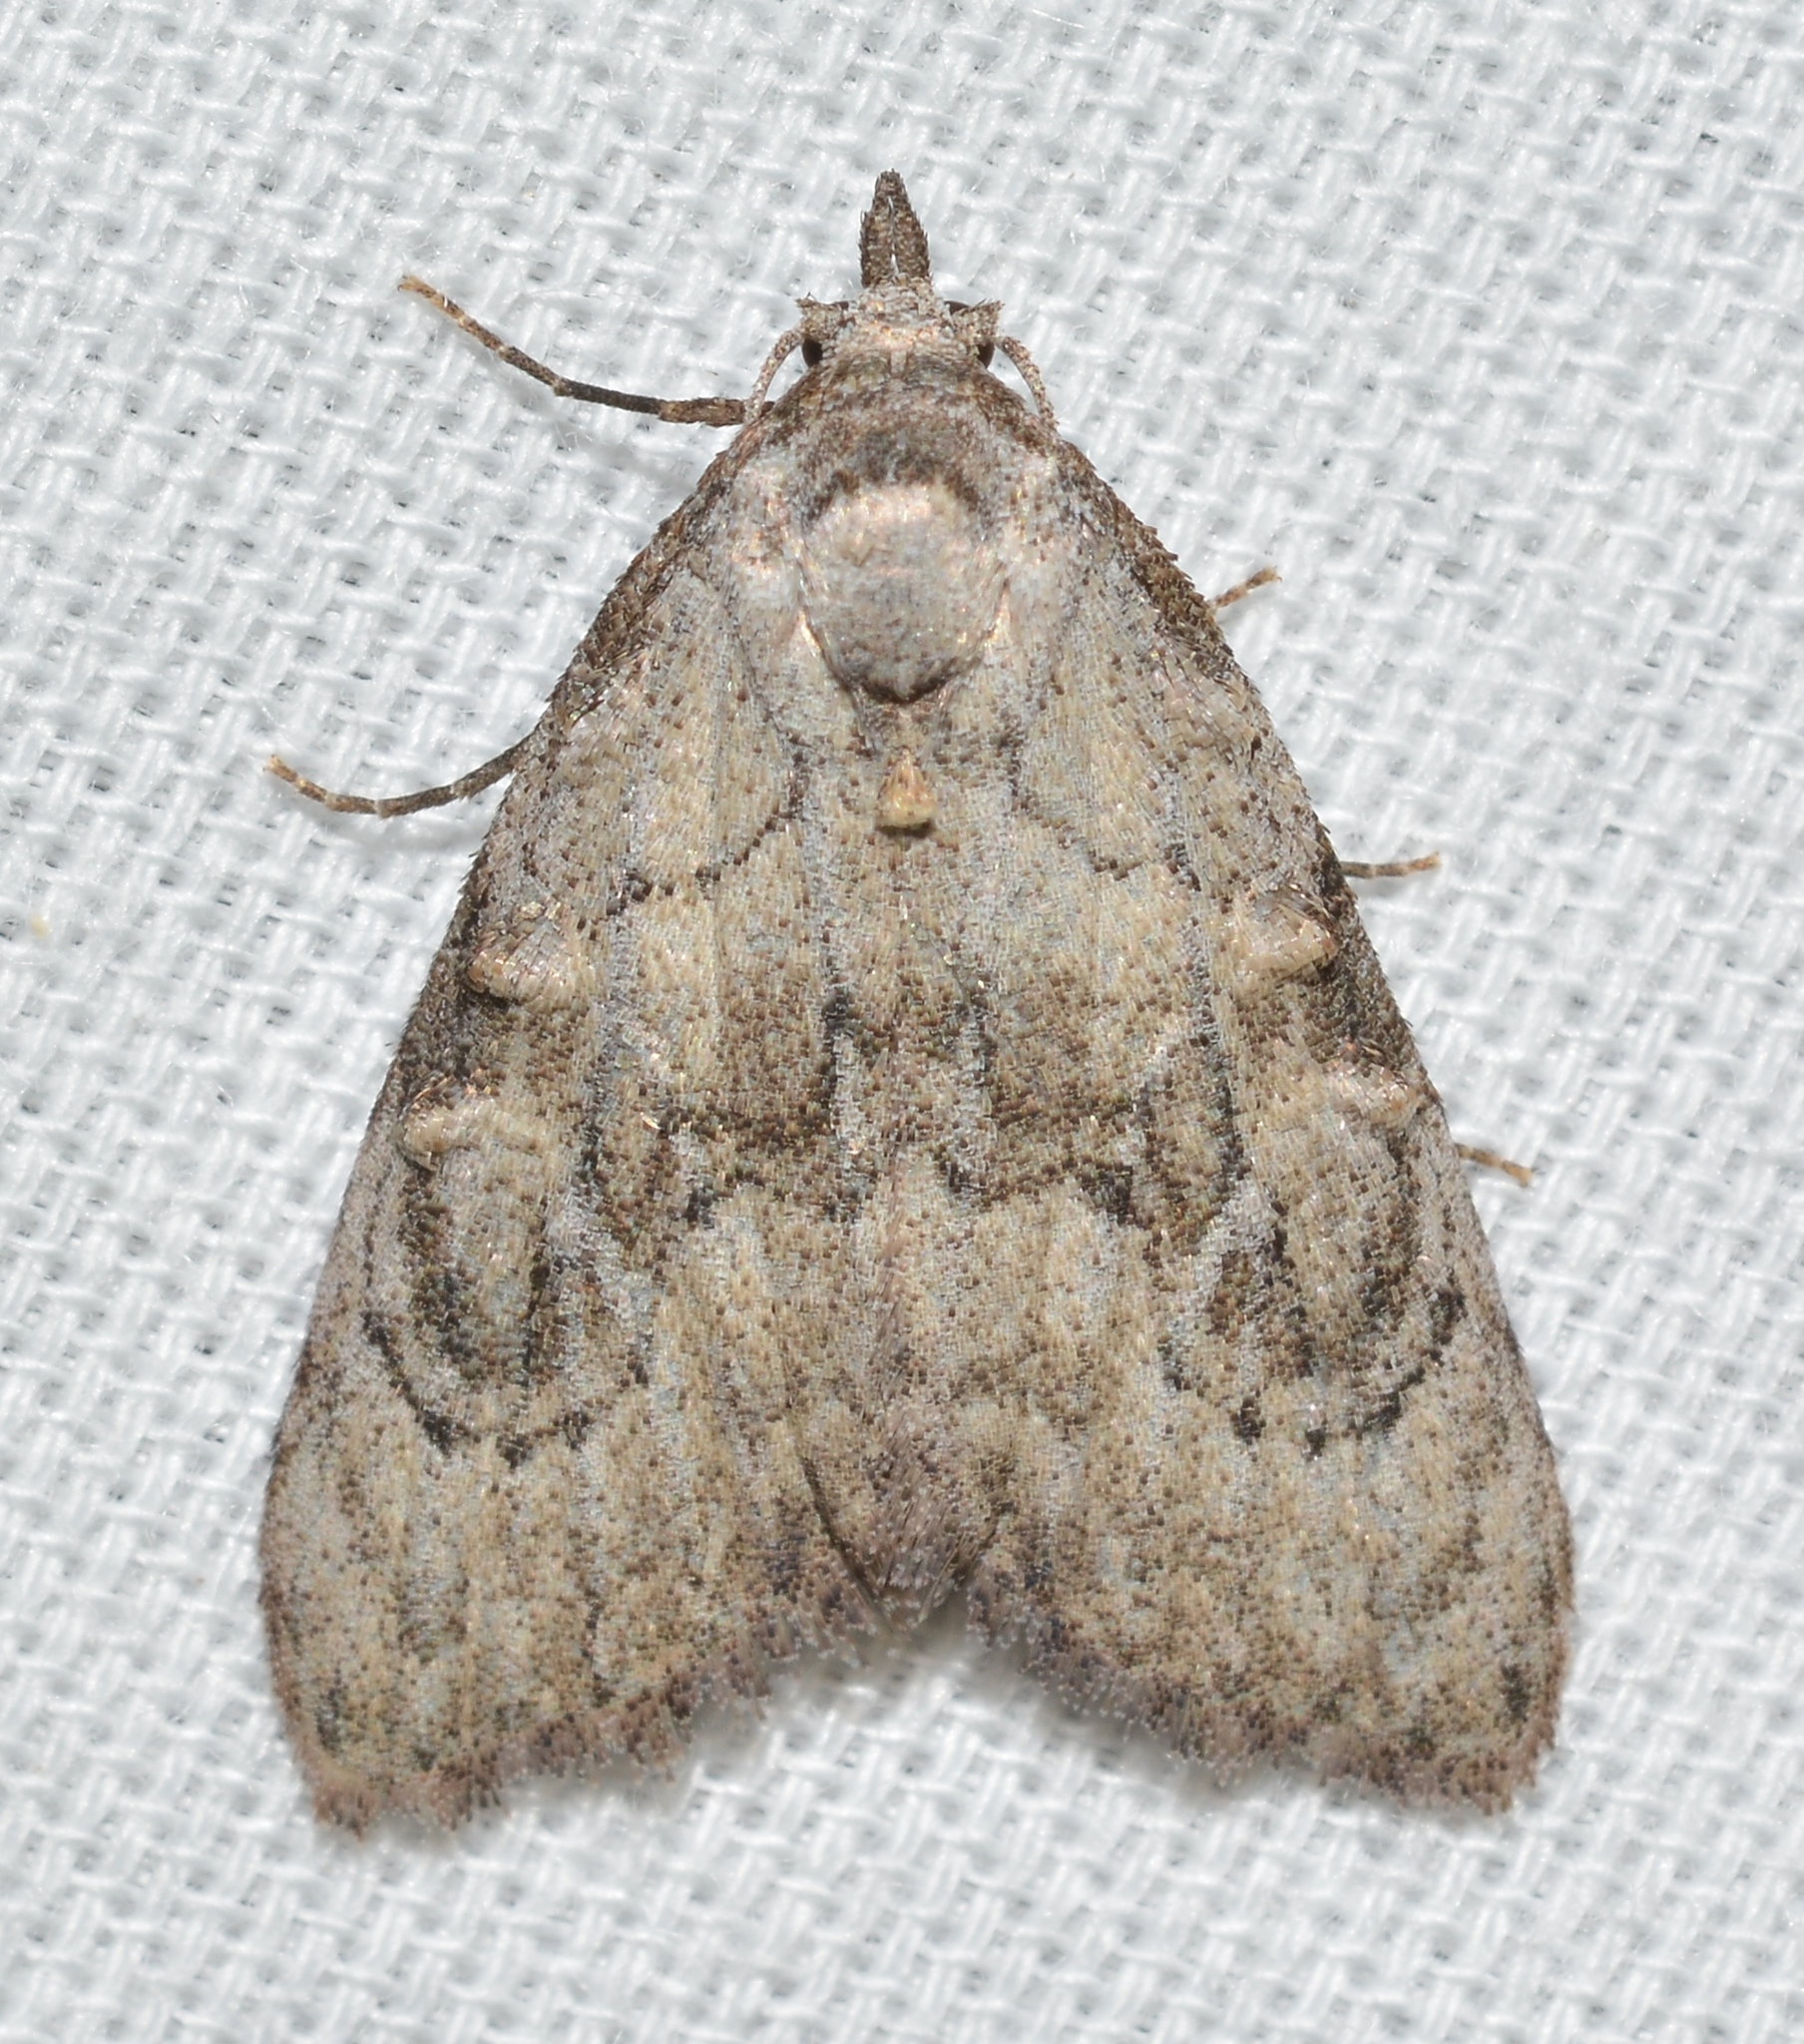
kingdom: Animalia
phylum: Arthropoda
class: Insecta
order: Lepidoptera
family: Nolidae
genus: Meganola
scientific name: Meganola minuscula
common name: Confused meganola moth
